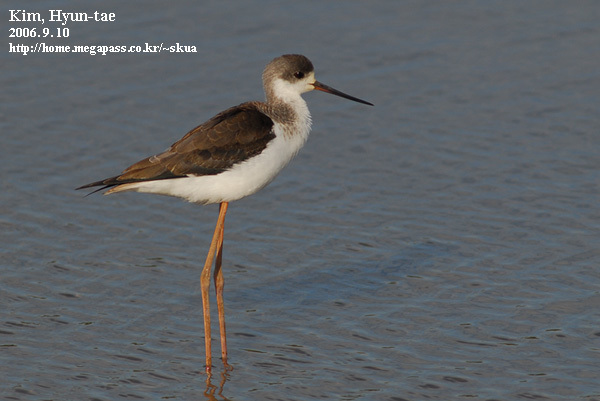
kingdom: Animalia
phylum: Chordata
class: Aves
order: Charadriiformes
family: Recurvirostridae
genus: Himantopus
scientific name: Himantopus himantopus
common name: Black-winged stilt
